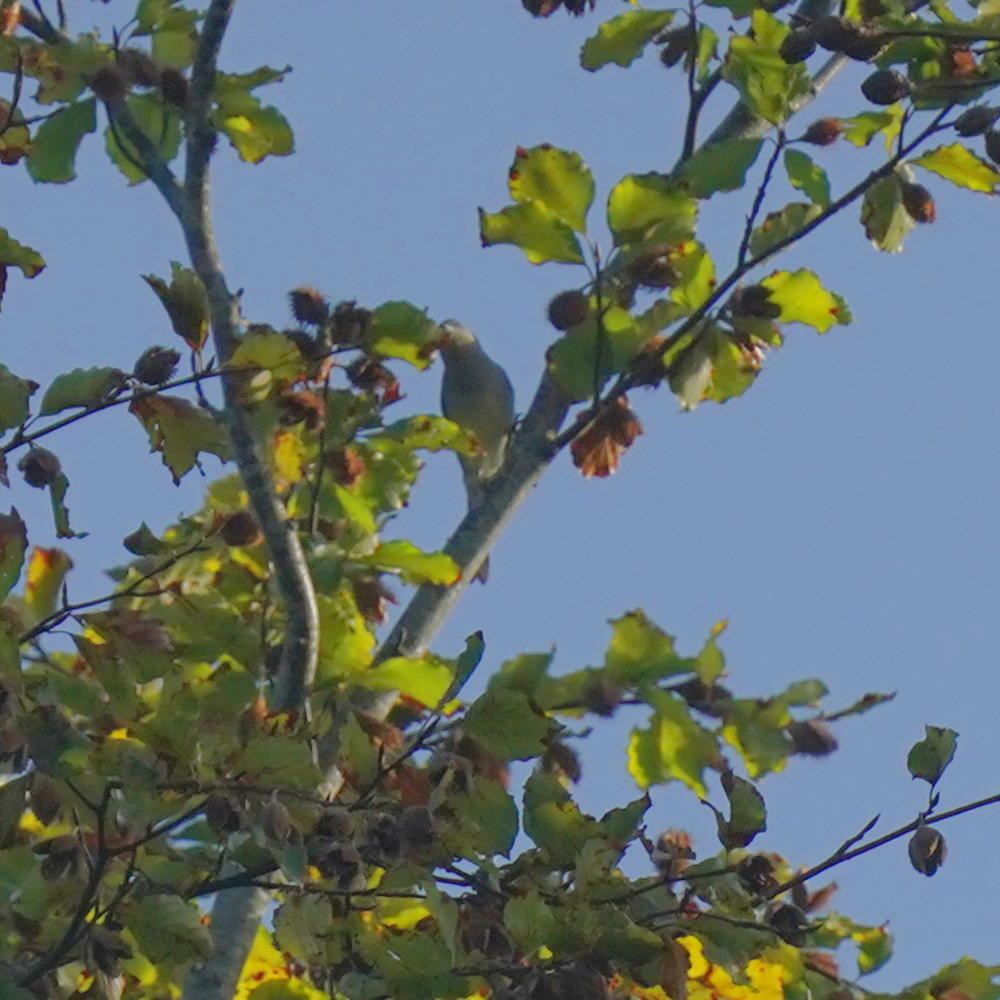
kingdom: Animalia
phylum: Chordata
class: Aves
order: Passeriformes
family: Sylviidae
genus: Sylvia
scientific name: Sylvia atricapilla
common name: Eurasian blackcap
